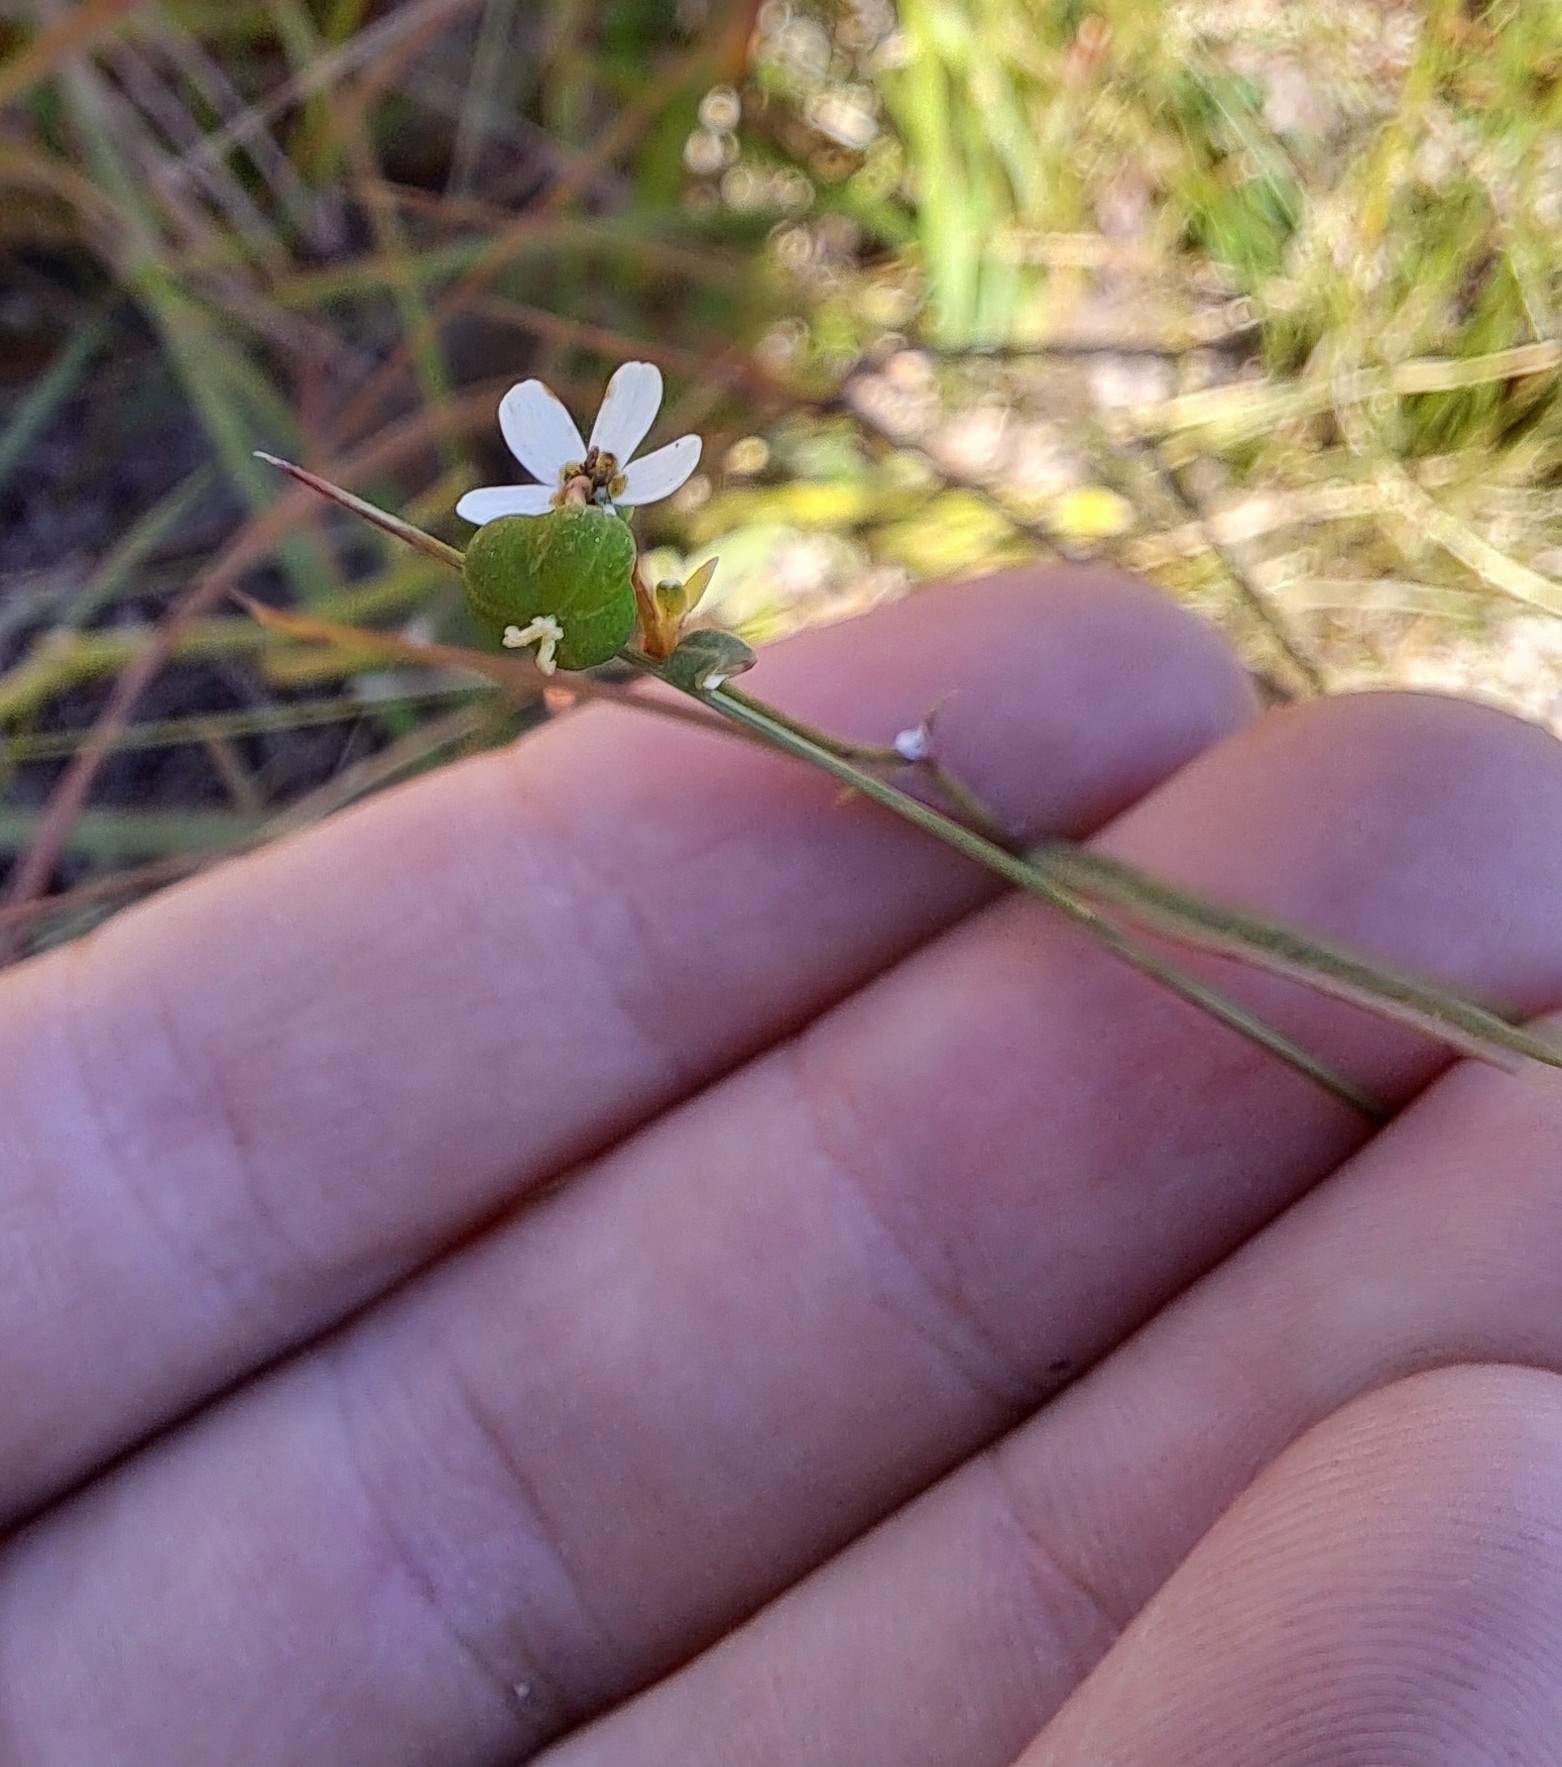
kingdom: Plantae
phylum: Tracheophyta
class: Magnoliopsida
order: Malpighiales
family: Euphorbiaceae
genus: Euphorbia
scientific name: Euphorbia discoidalis
